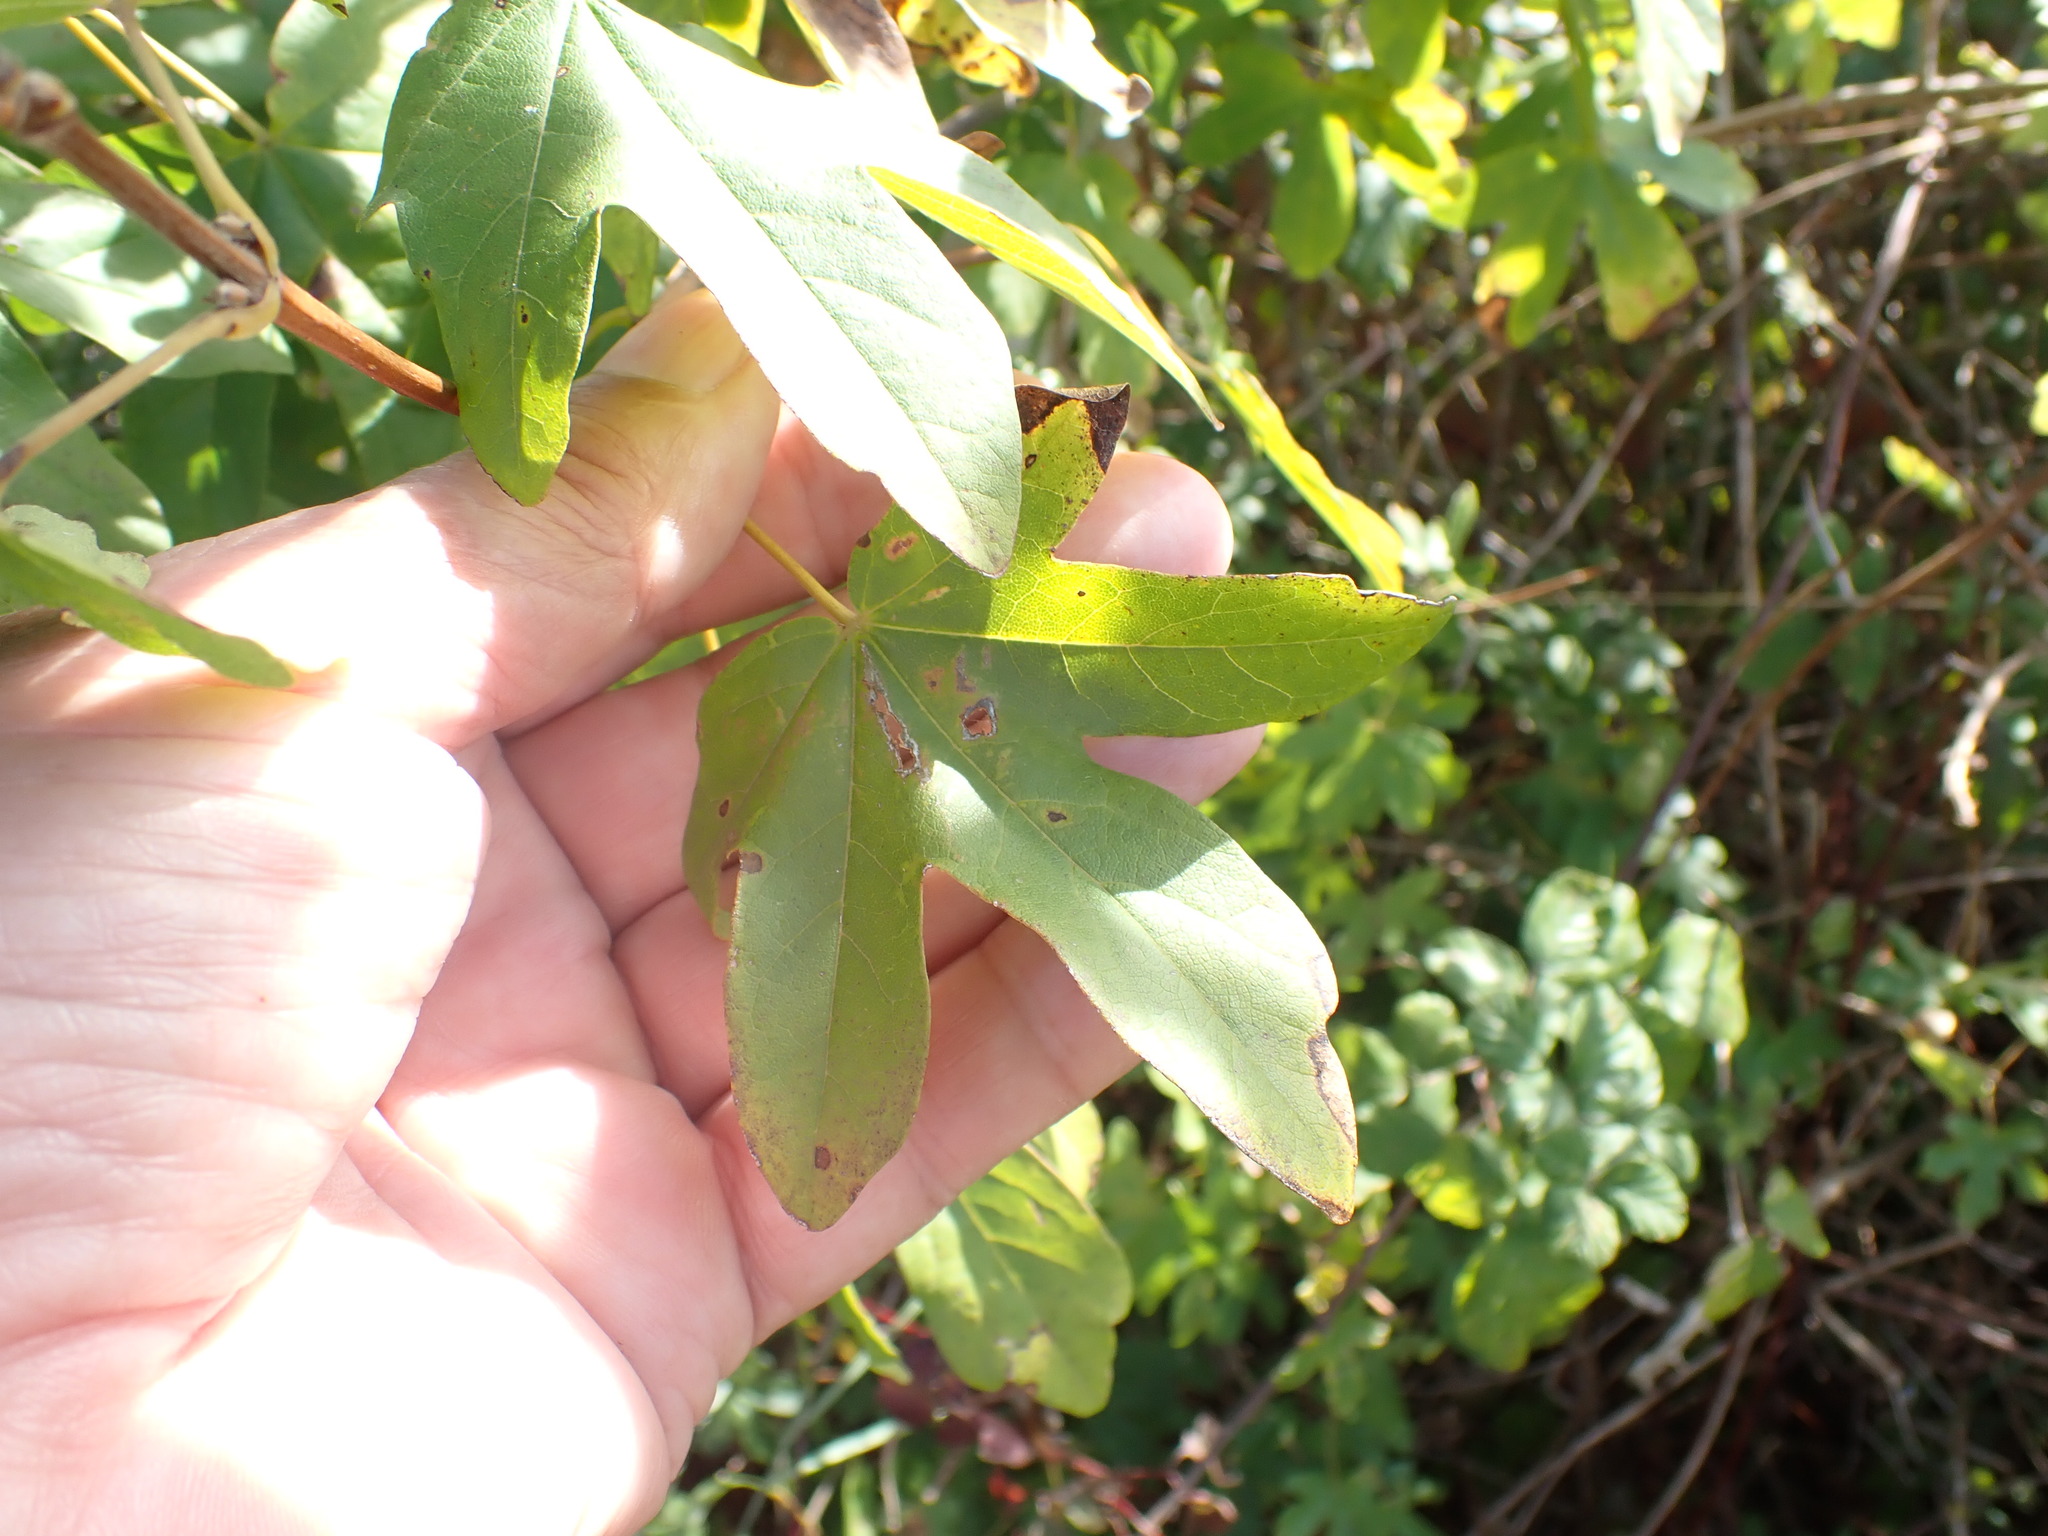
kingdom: Plantae
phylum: Tracheophyta
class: Magnoliopsida
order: Sapindales
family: Sapindaceae
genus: Acer
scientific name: Acer campestre
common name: Field maple
